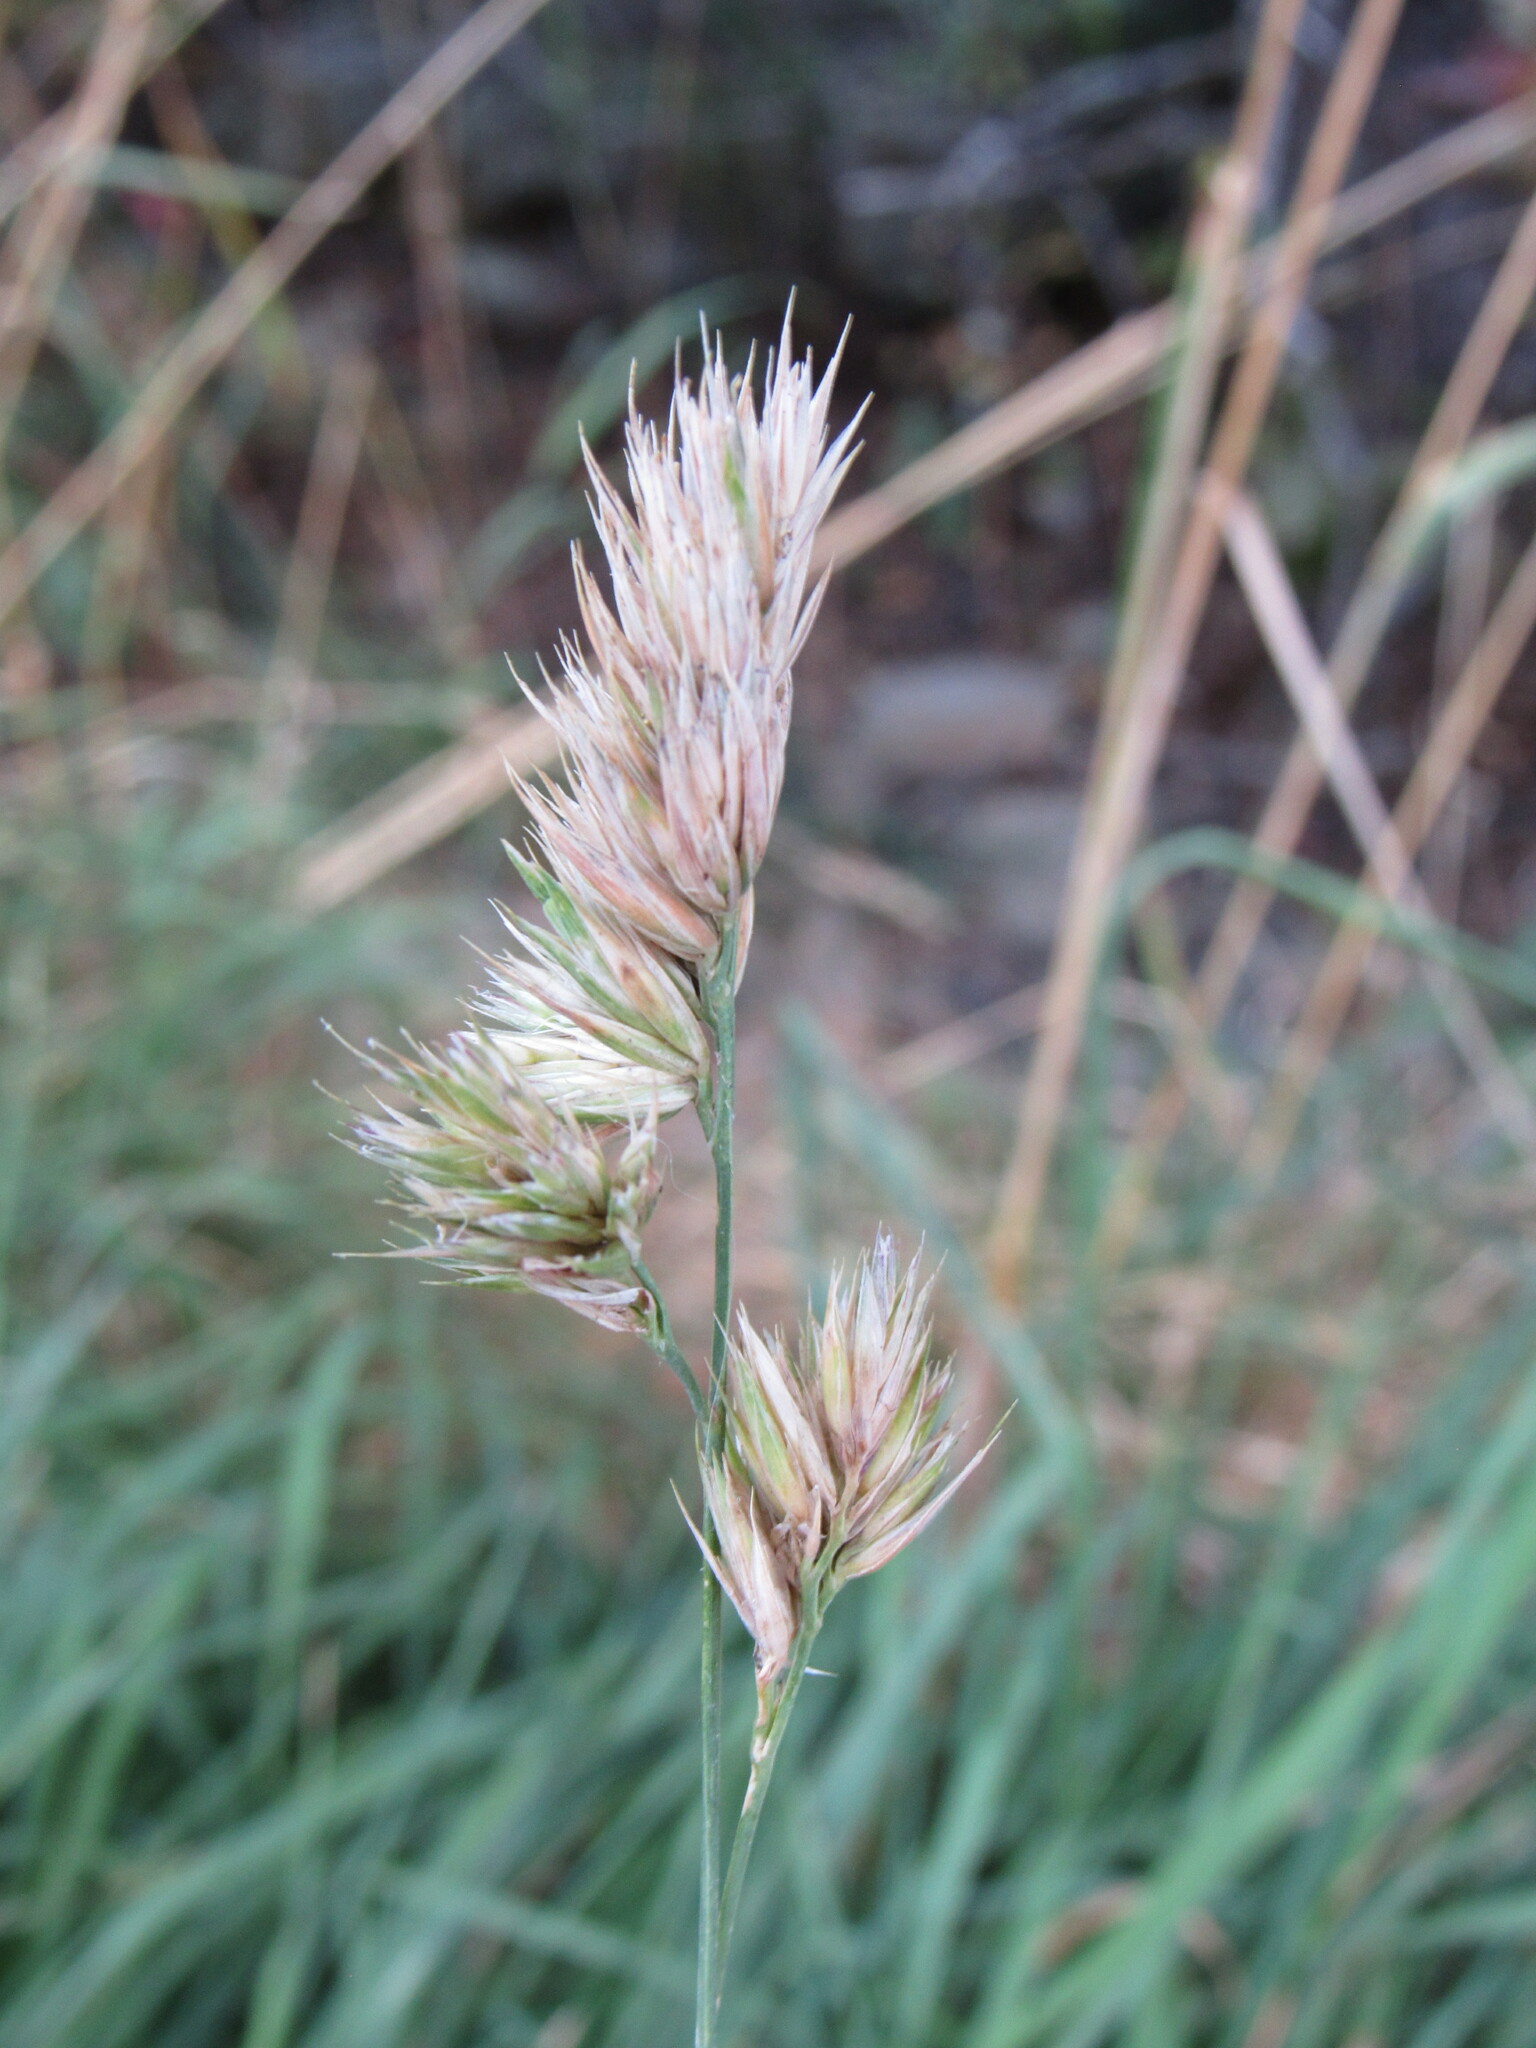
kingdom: Plantae
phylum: Tracheophyta
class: Liliopsida
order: Poales
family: Poaceae
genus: Dactylis
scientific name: Dactylis glomerata
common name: Orchardgrass
